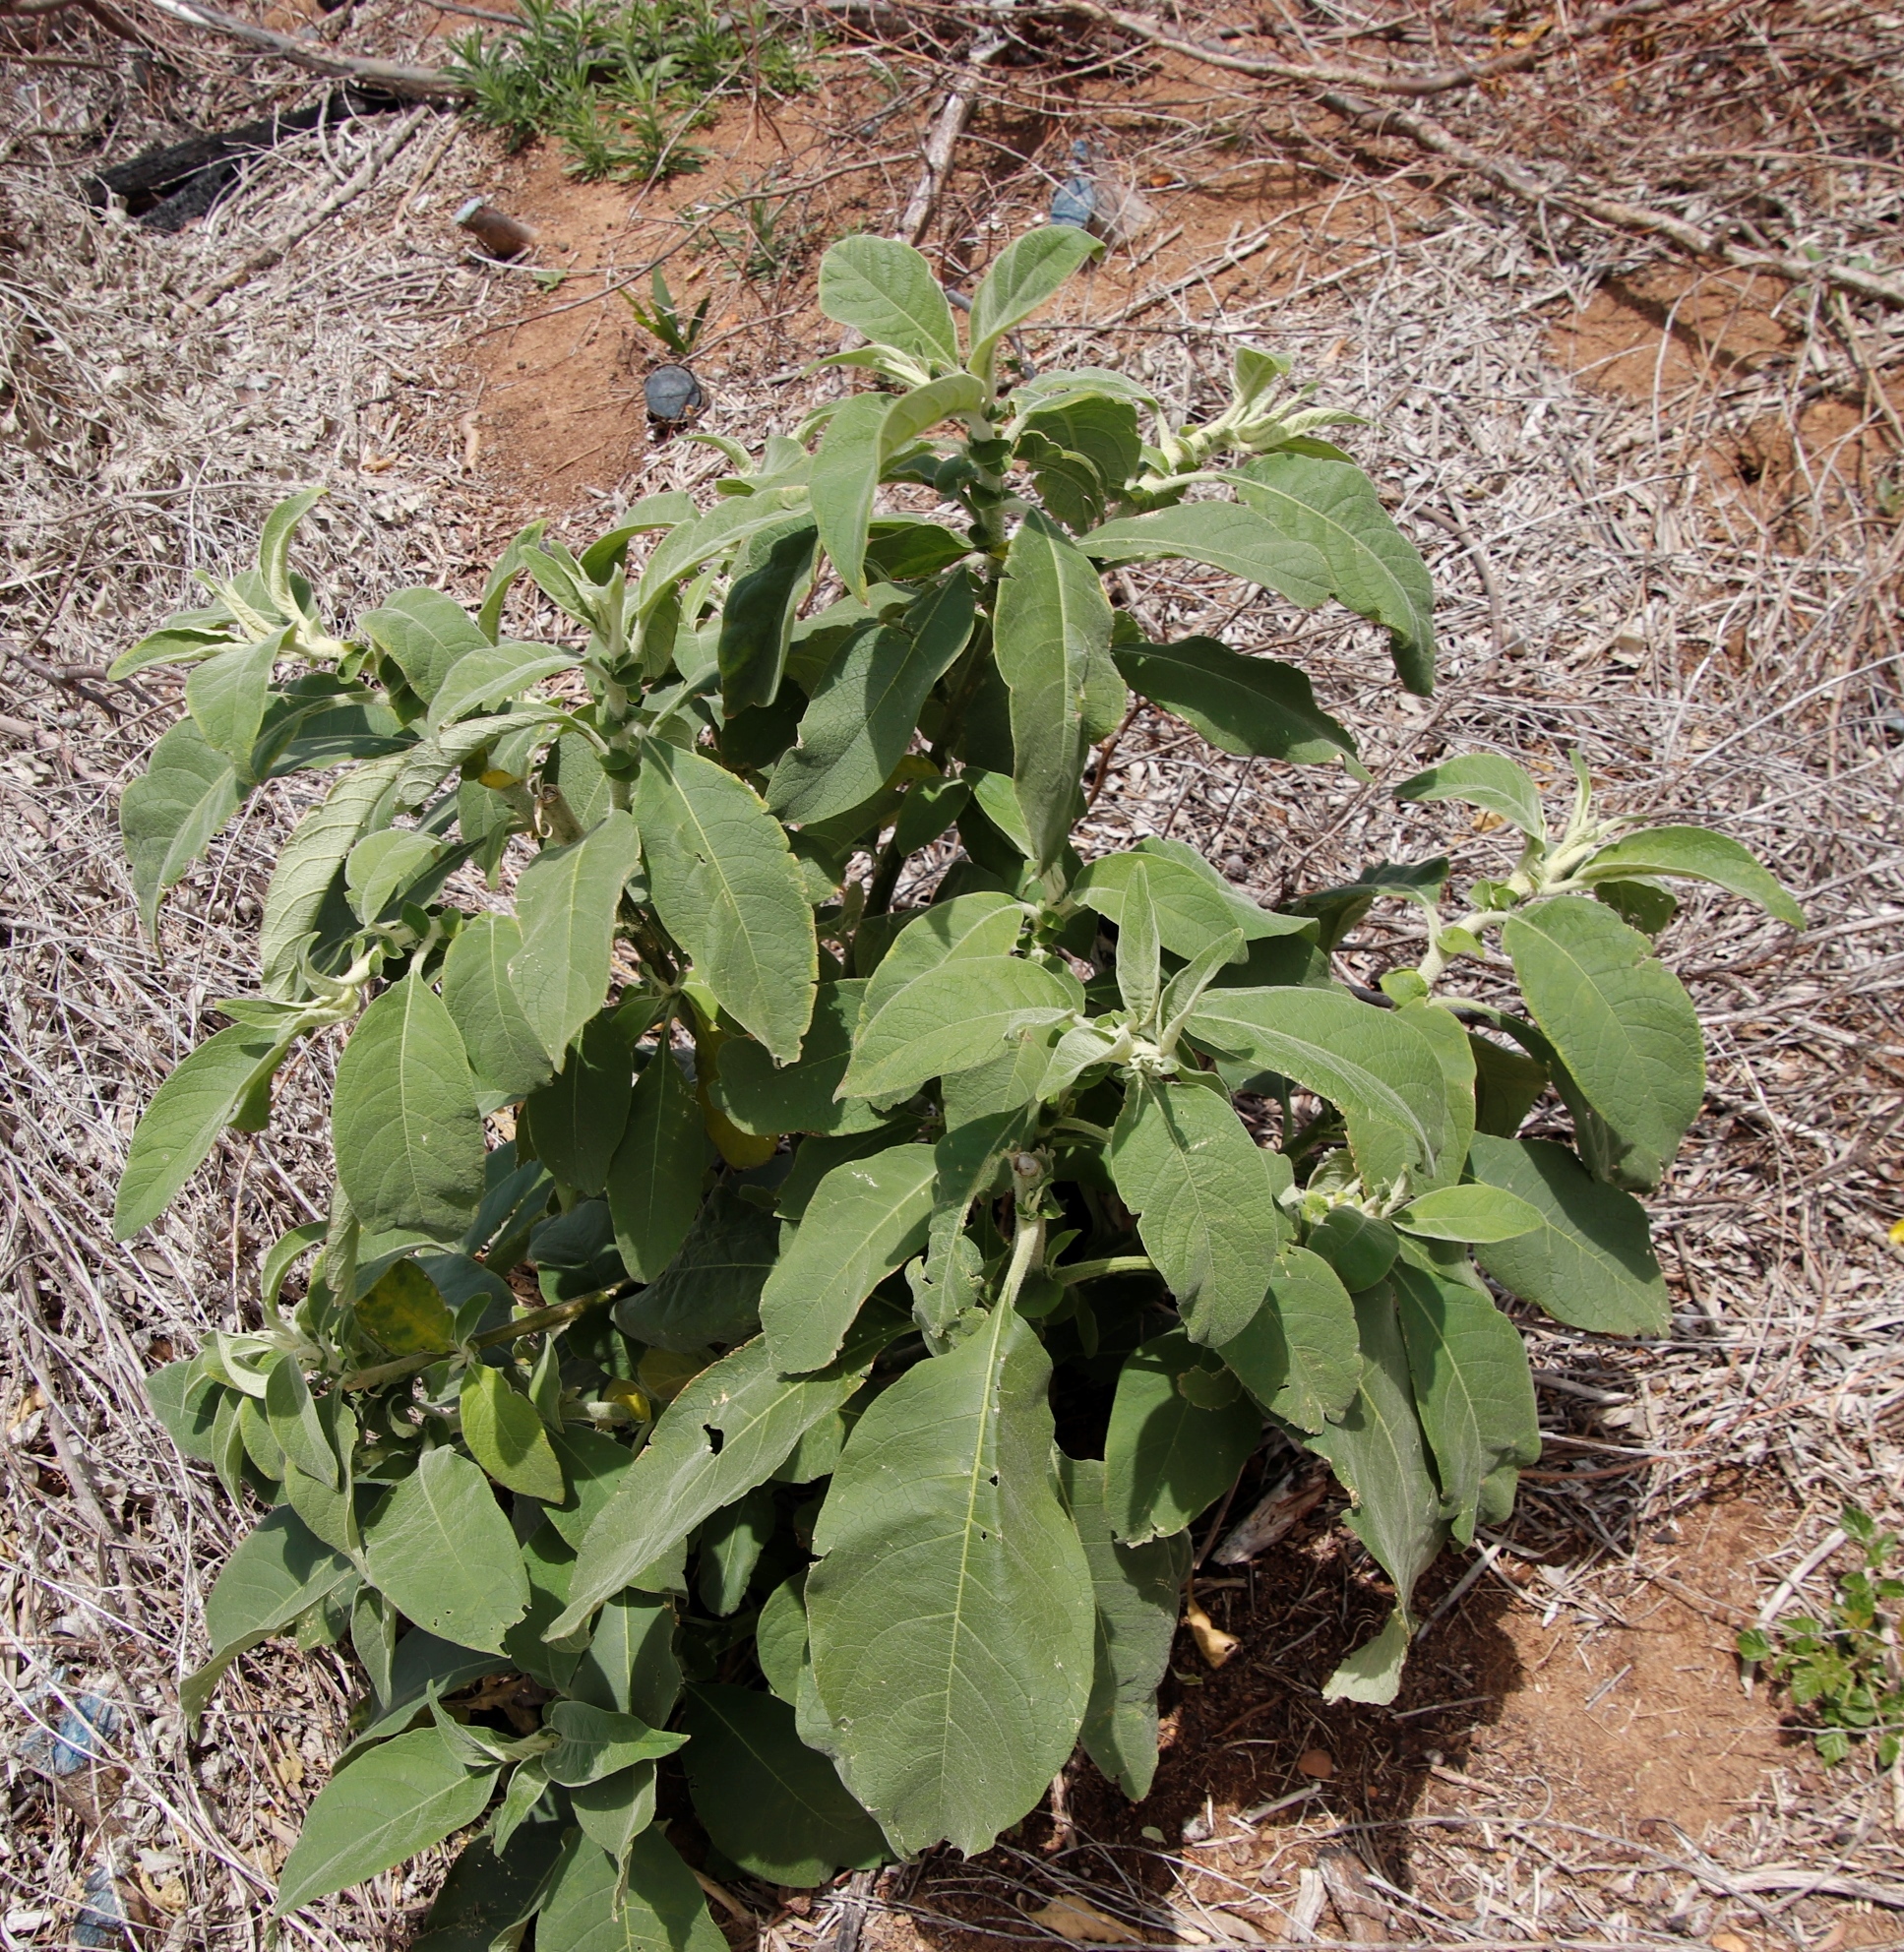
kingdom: Plantae
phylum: Tracheophyta
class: Magnoliopsida
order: Solanales
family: Solanaceae
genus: Solanum
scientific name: Solanum mauritianum
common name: Earleaf nightshade
